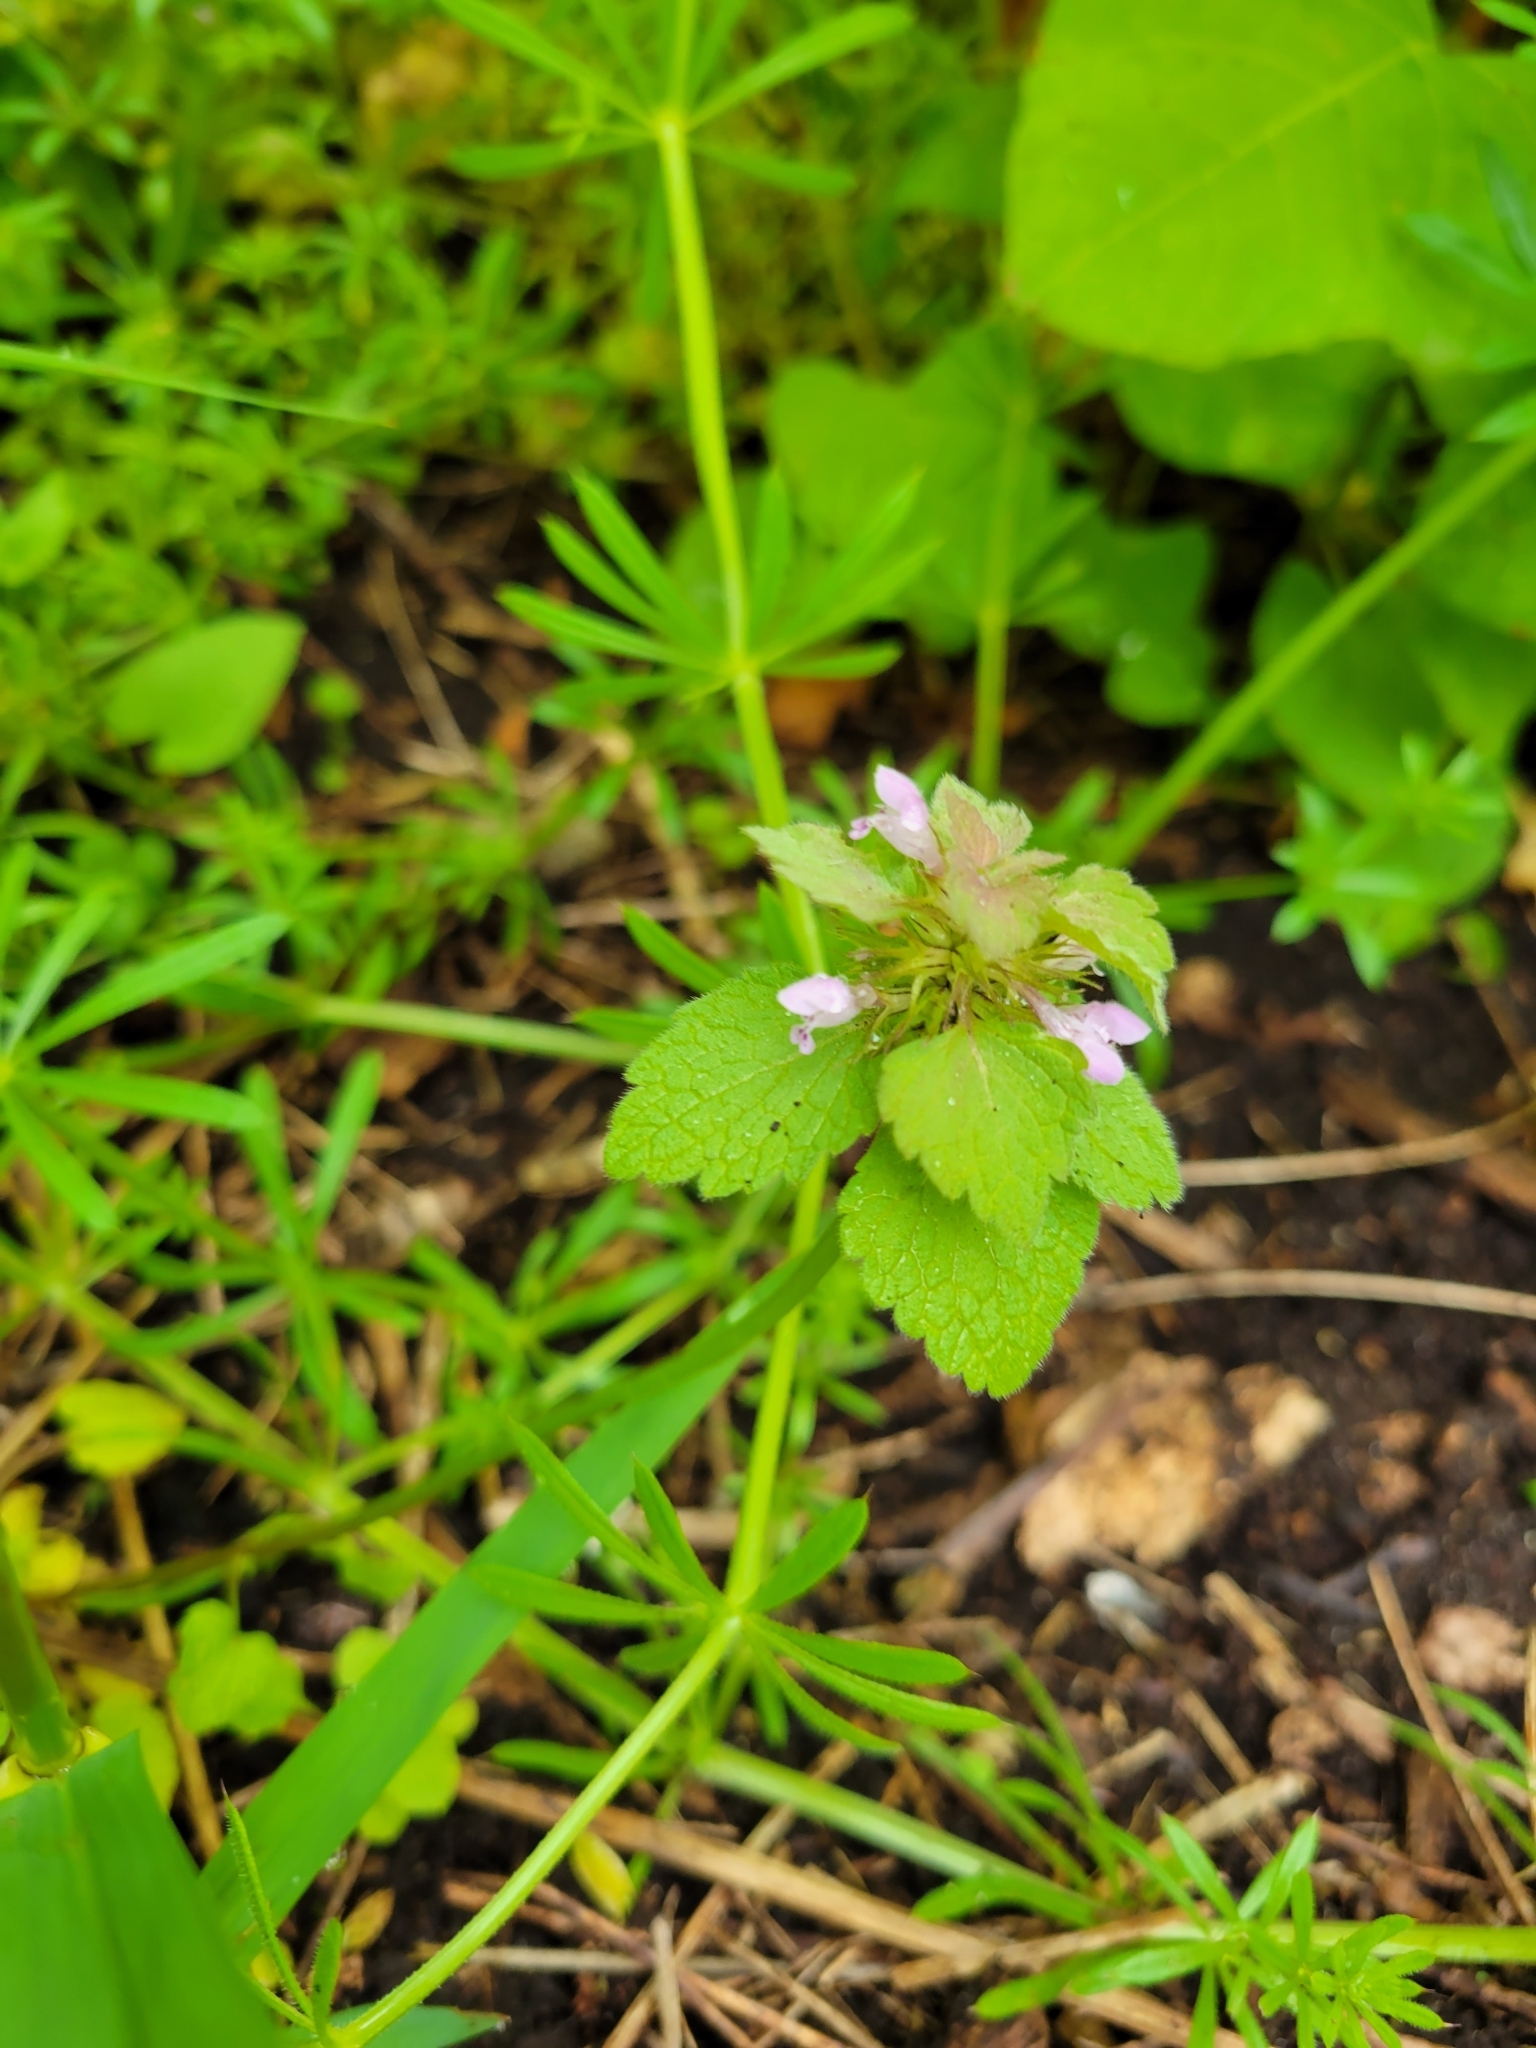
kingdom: Plantae
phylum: Tracheophyta
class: Magnoliopsida
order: Lamiales
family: Lamiaceae
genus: Lamium
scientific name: Lamium purpureum
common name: Red dead-nettle
